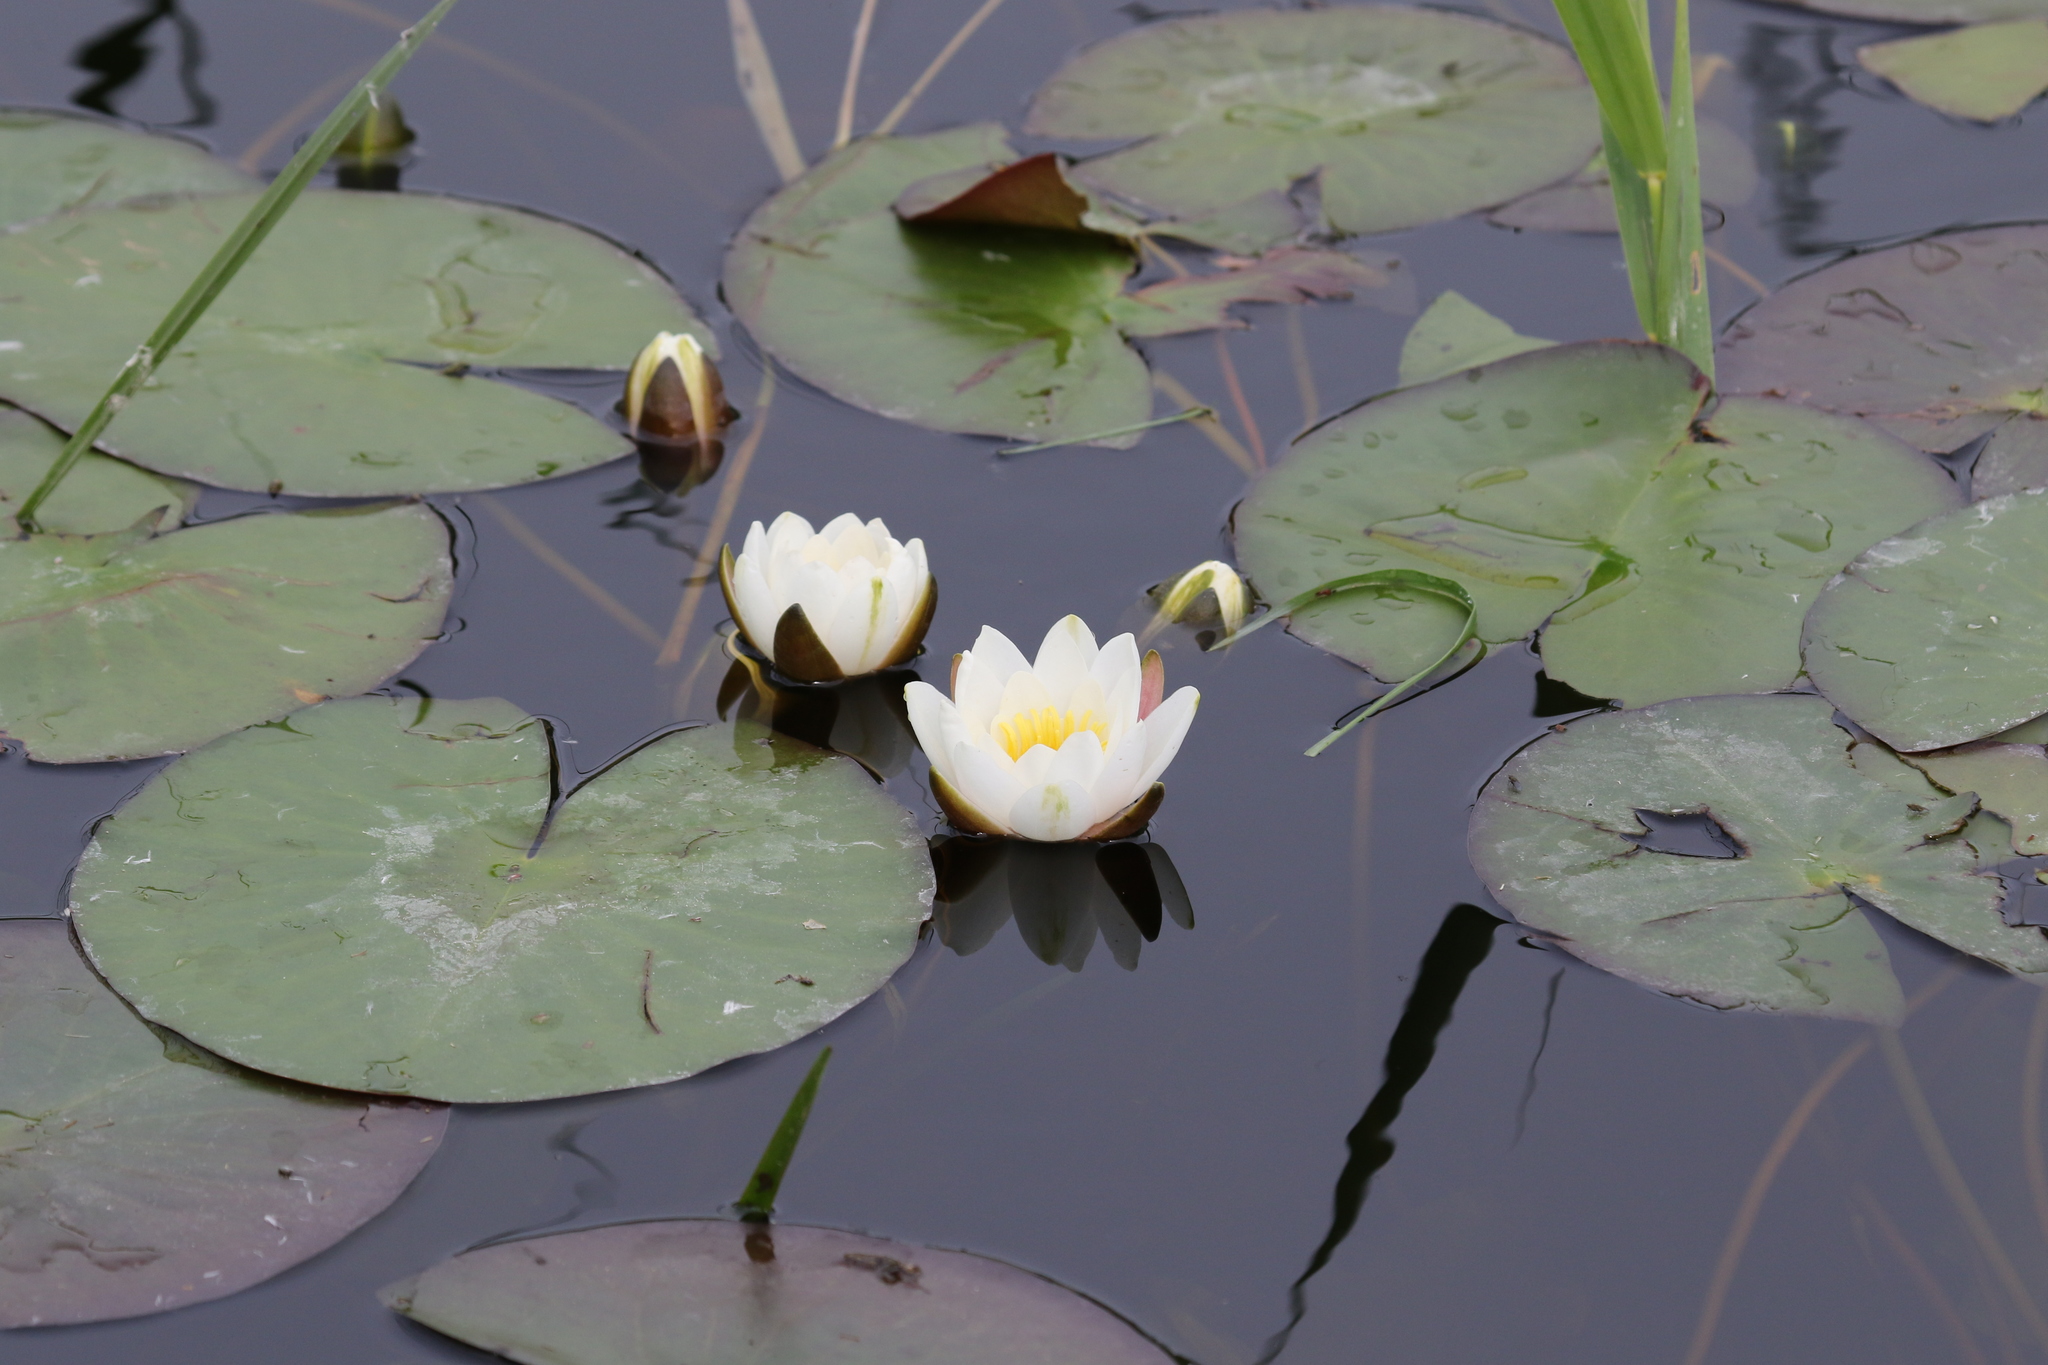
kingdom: Plantae
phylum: Tracheophyta
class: Magnoliopsida
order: Nymphaeales
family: Nymphaeaceae
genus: Nymphaea
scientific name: Nymphaea alba
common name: White water-lily
